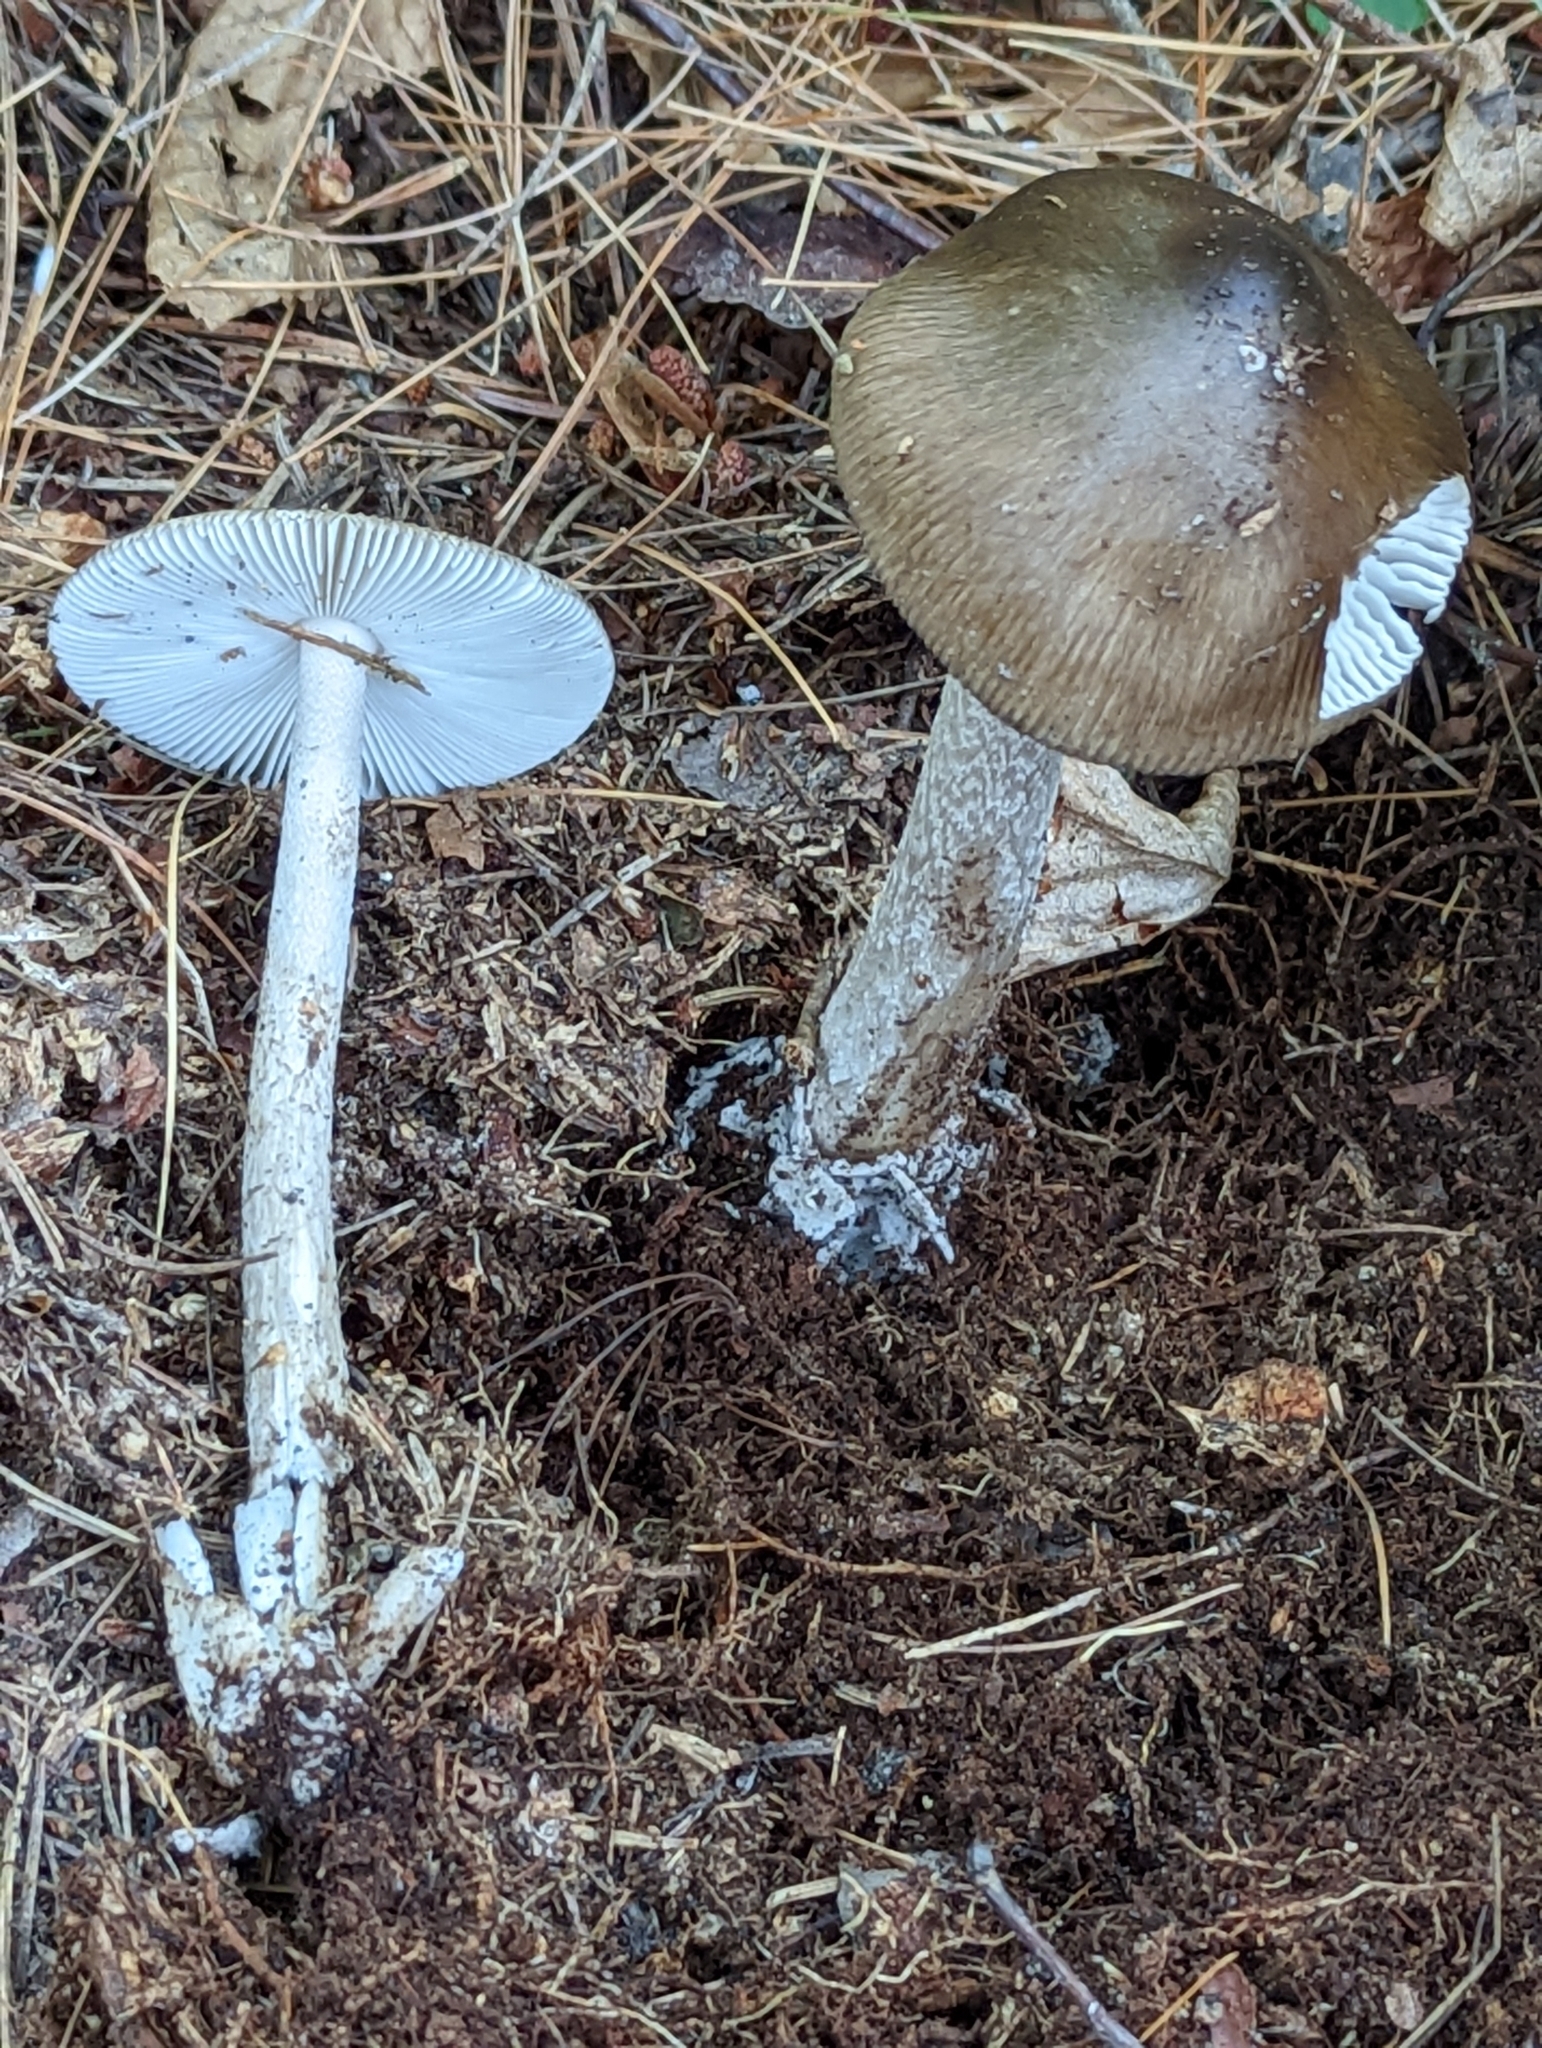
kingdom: Fungi
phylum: Basidiomycota
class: Agaricomycetes
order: Agaricales
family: Amanitaceae
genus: Amanita
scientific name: Amanita rhacopus
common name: Shaggy legged ringless amanita
